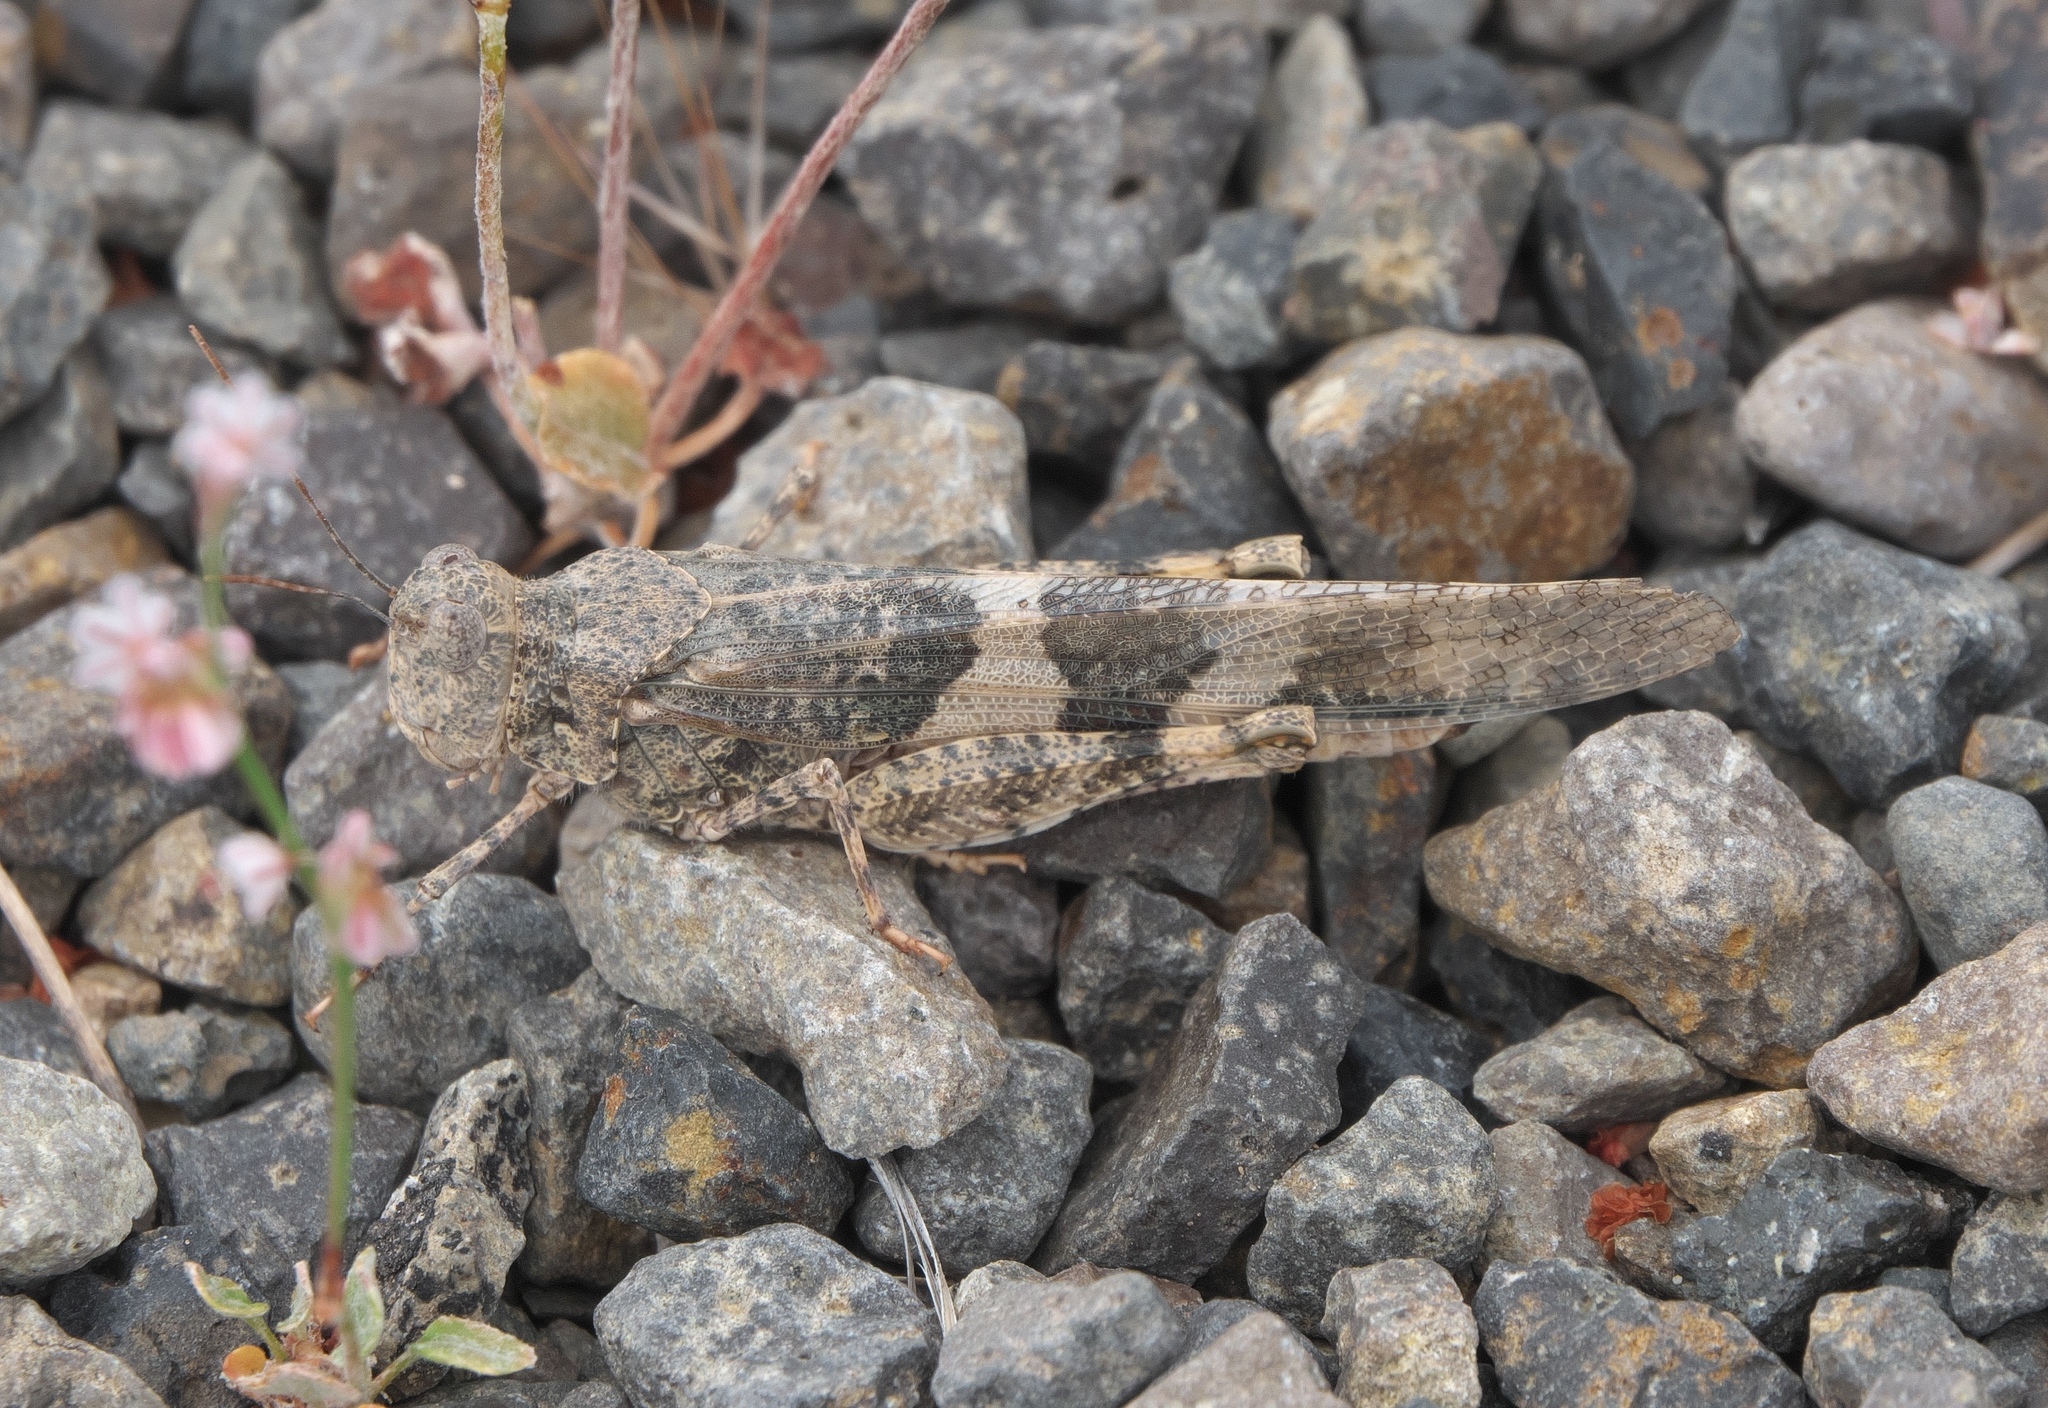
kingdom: Animalia
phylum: Arthropoda
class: Insecta
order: Orthoptera
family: Acrididae
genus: Trimerotropis
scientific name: Trimerotropis pallidipennis
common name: Pallid-winged grasshopper
